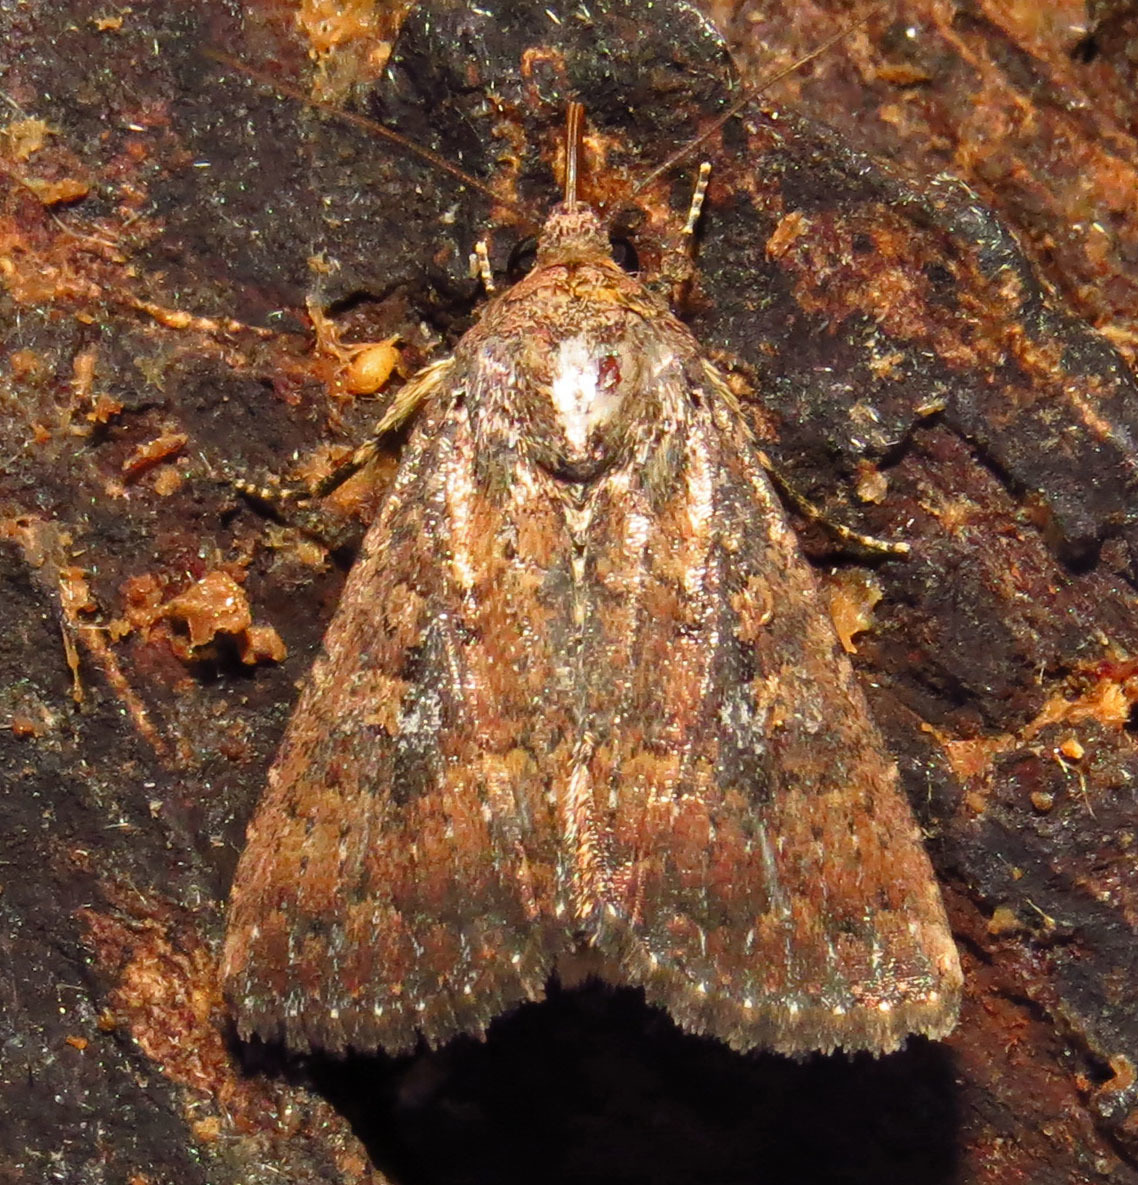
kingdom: Animalia
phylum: Arthropoda
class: Insecta
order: Lepidoptera
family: Noctuidae
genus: Condica
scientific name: Condica sutor
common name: Cobbler moth
